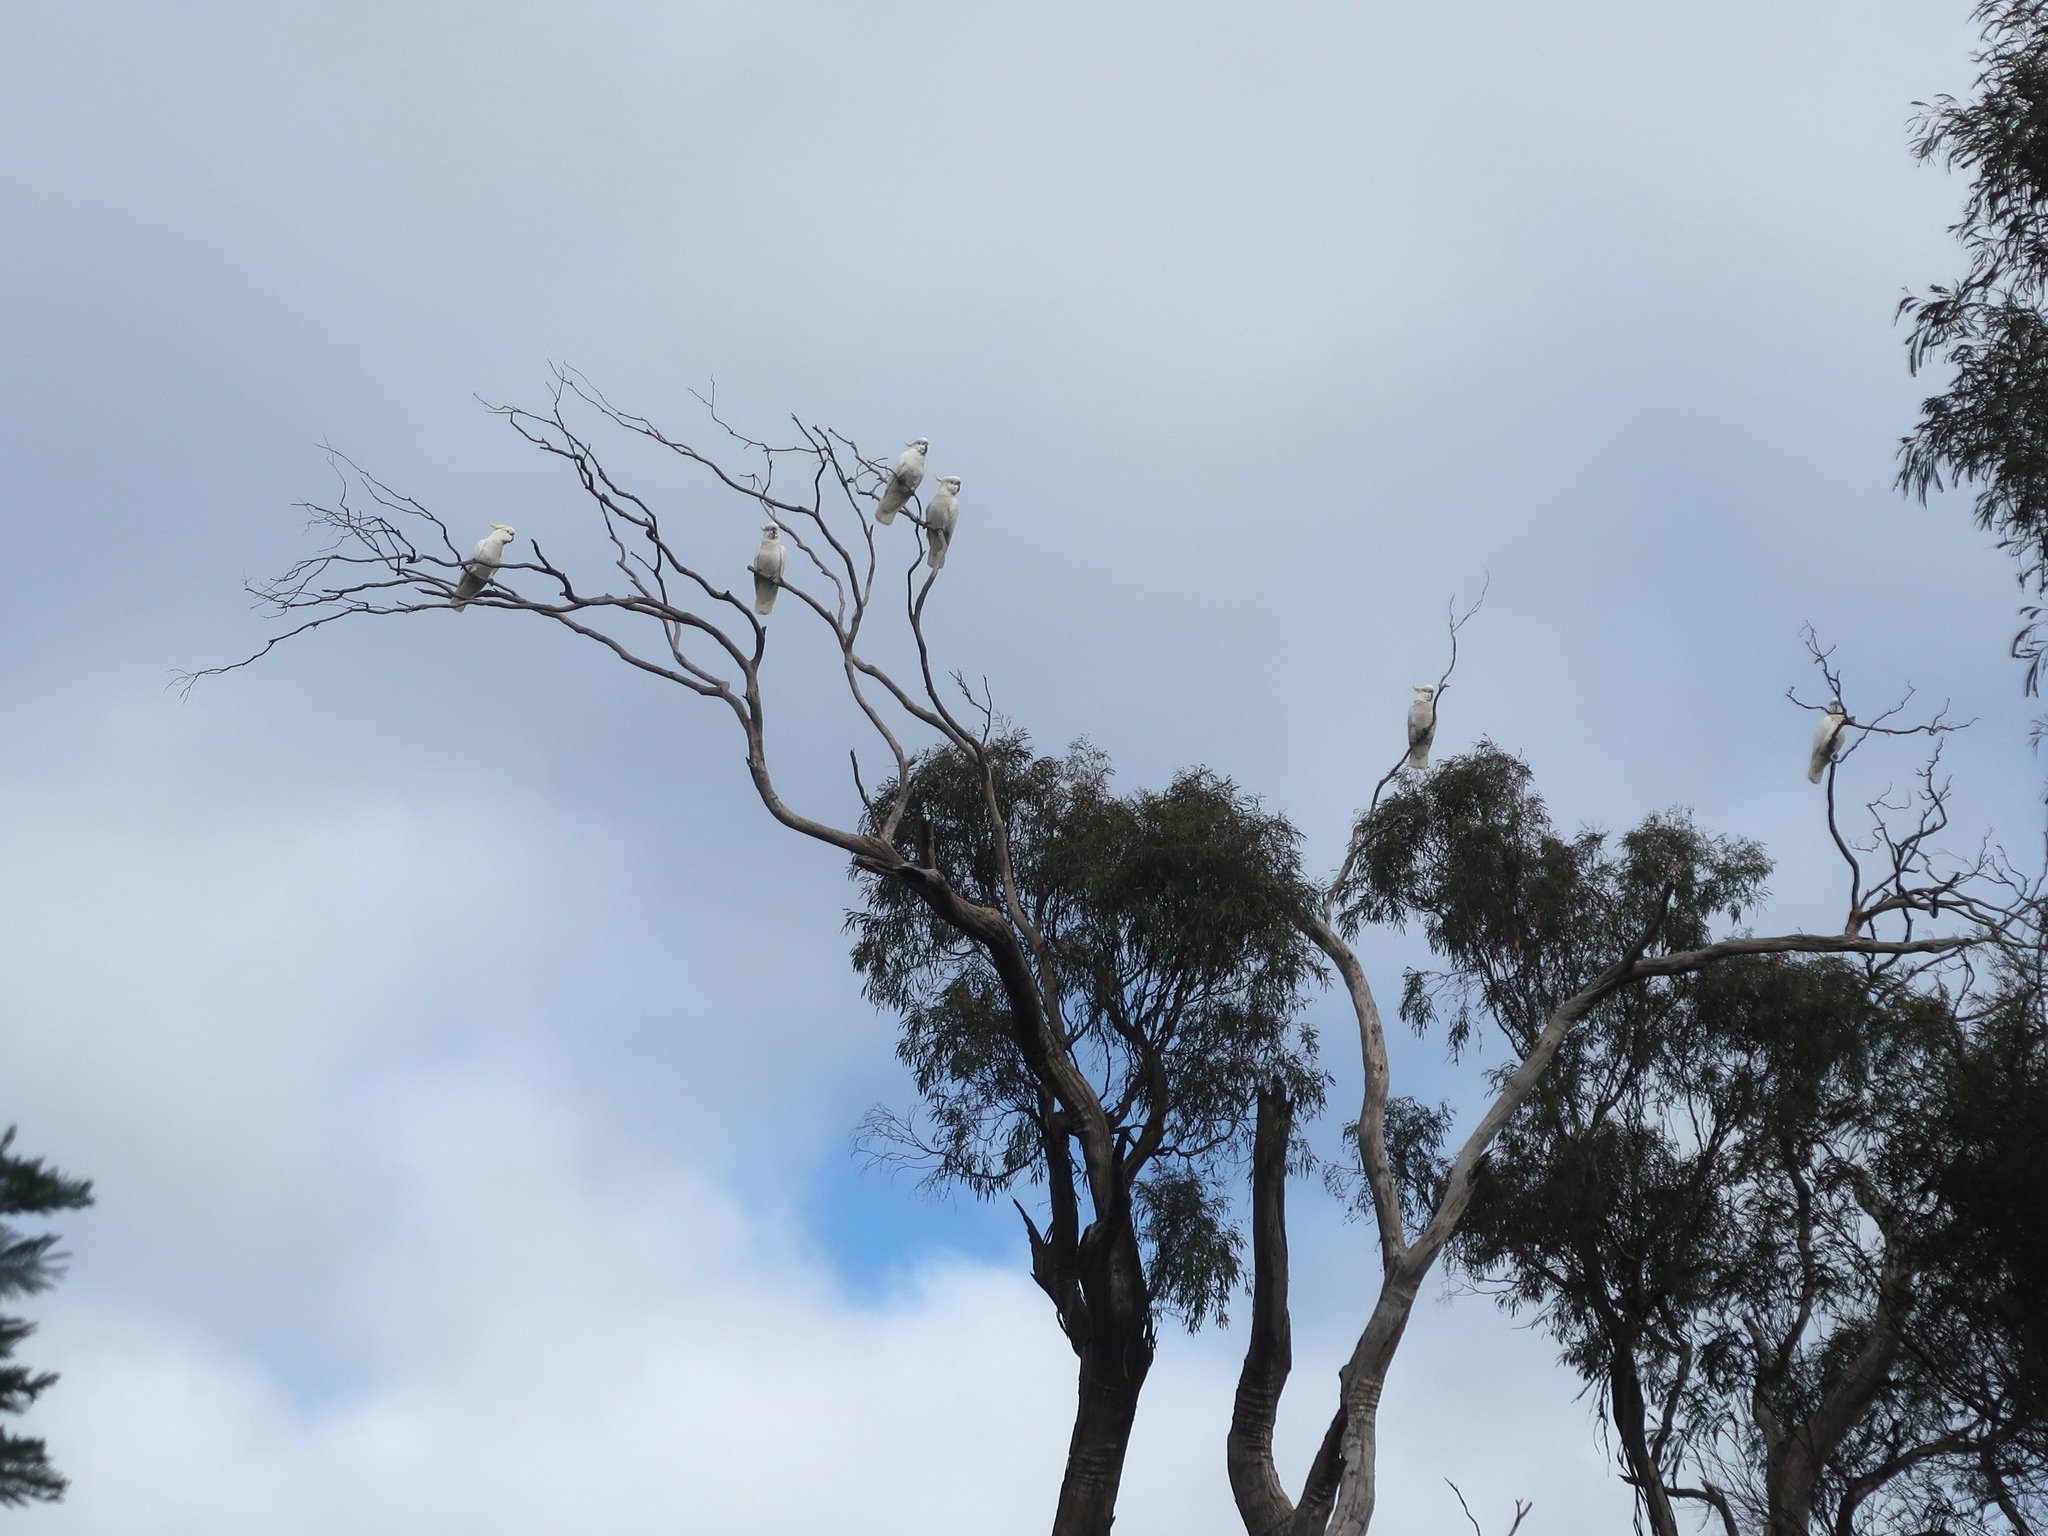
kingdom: Animalia
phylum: Chordata
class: Aves
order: Psittaciformes
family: Psittacidae
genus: Cacatua
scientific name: Cacatua galerita
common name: Sulphur-crested cockatoo
